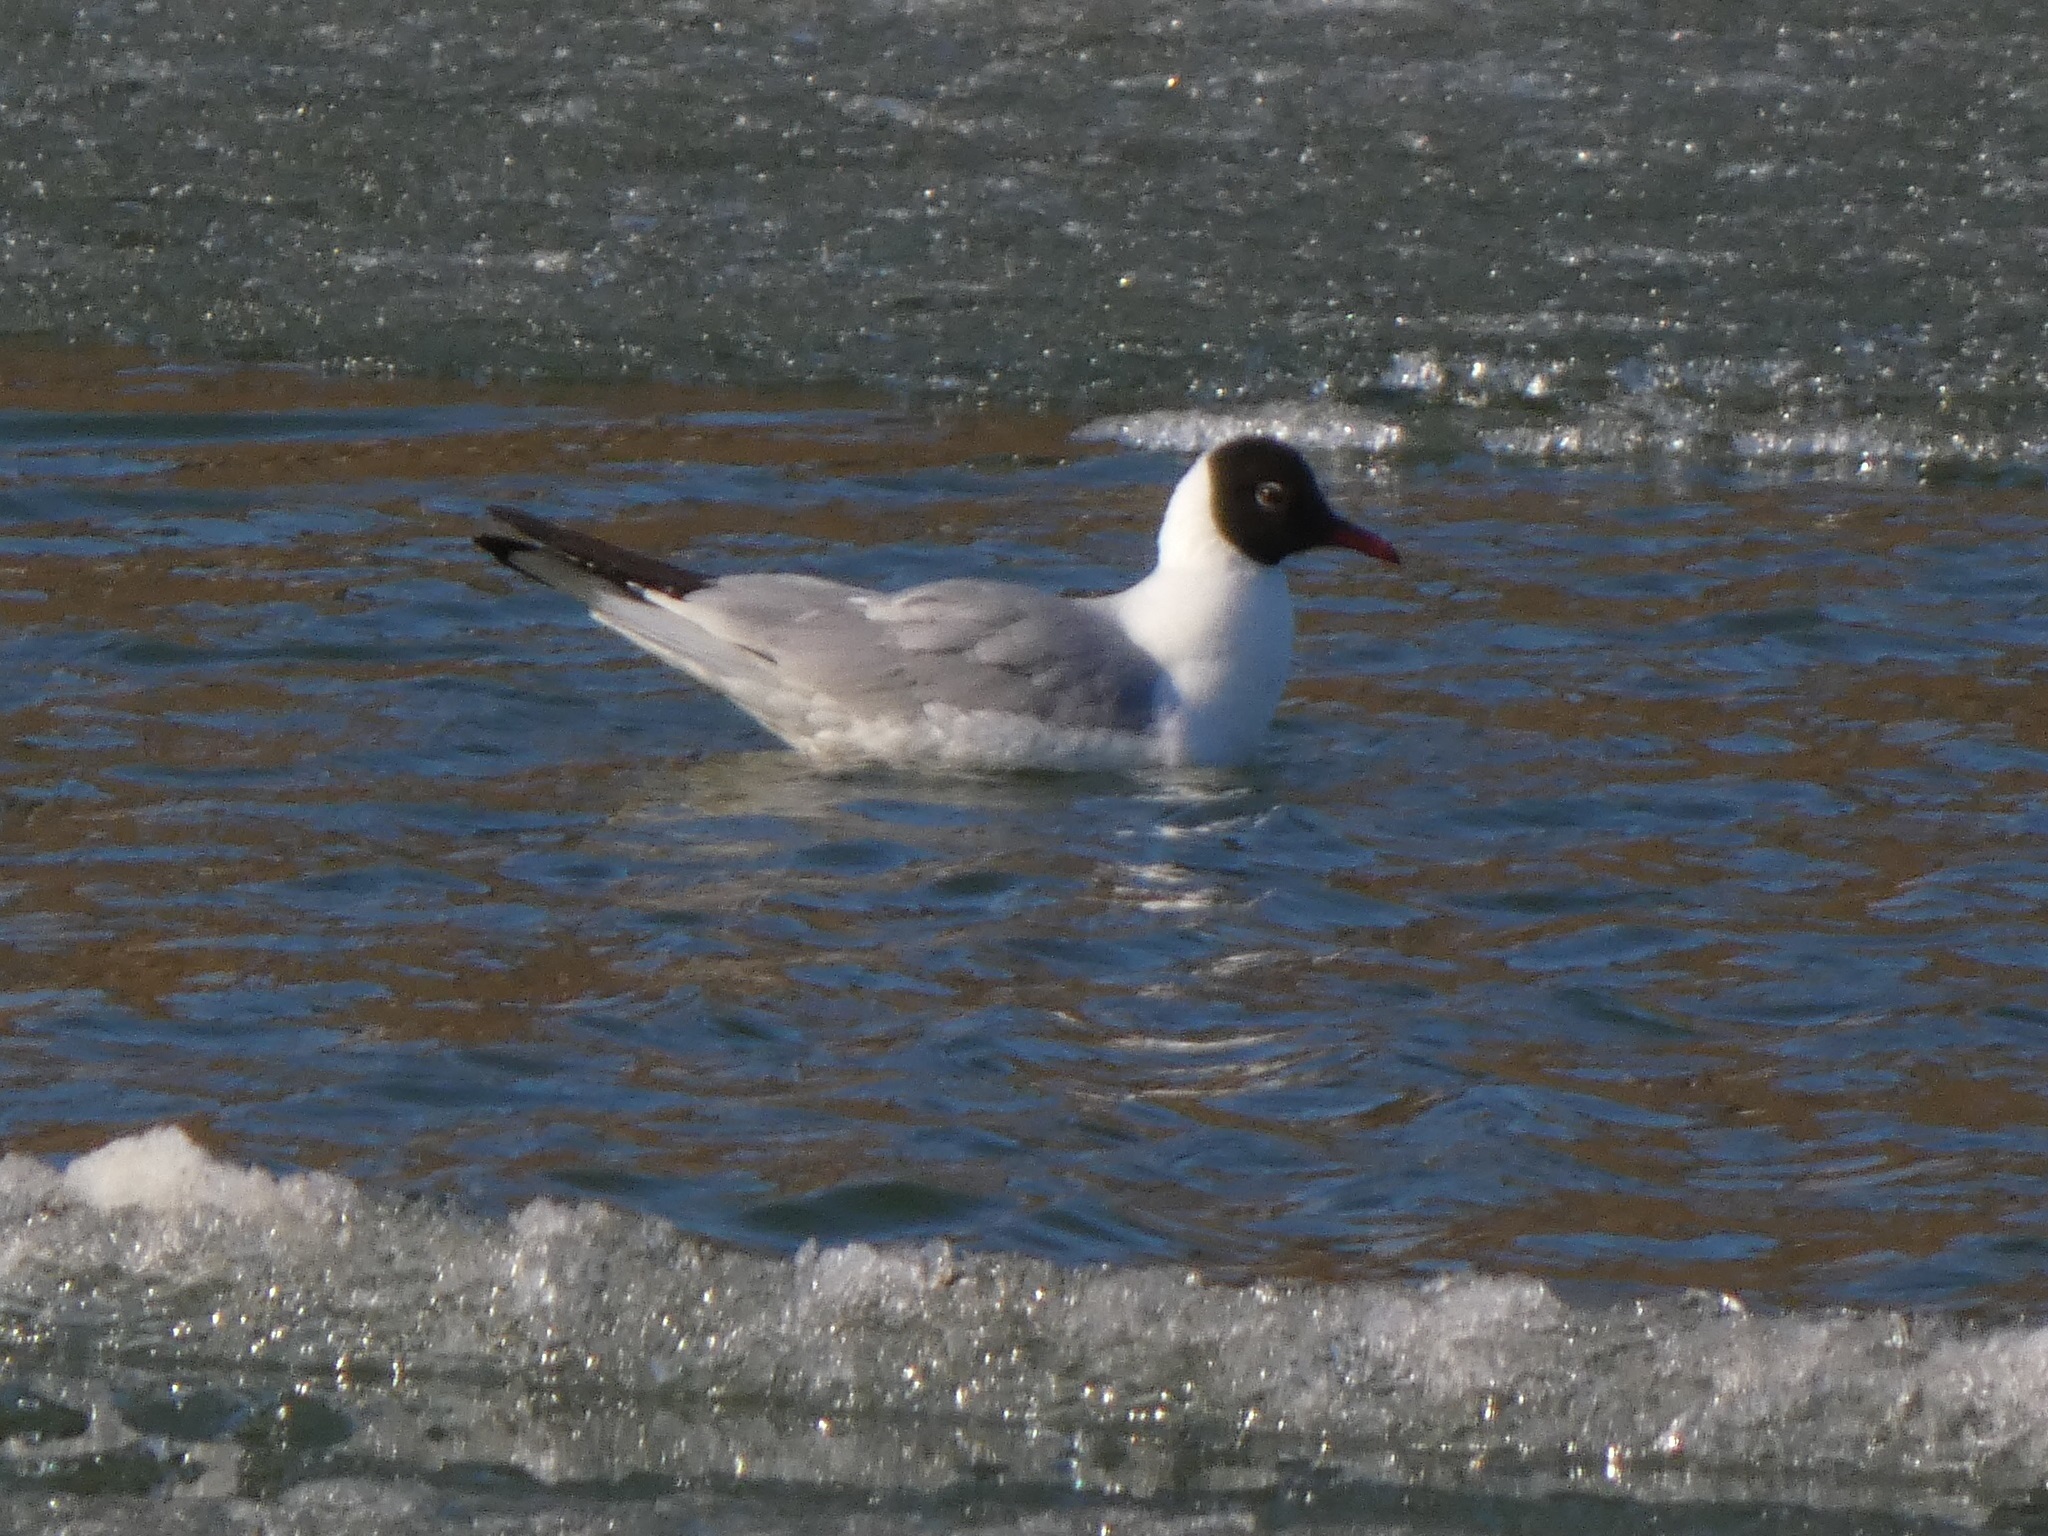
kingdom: Animalia
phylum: Chordata
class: Aves
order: Charadriiformes
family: Laridae
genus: Chroicocephalus
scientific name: Chroicocephalus ridibundus
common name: Black-headed gull
